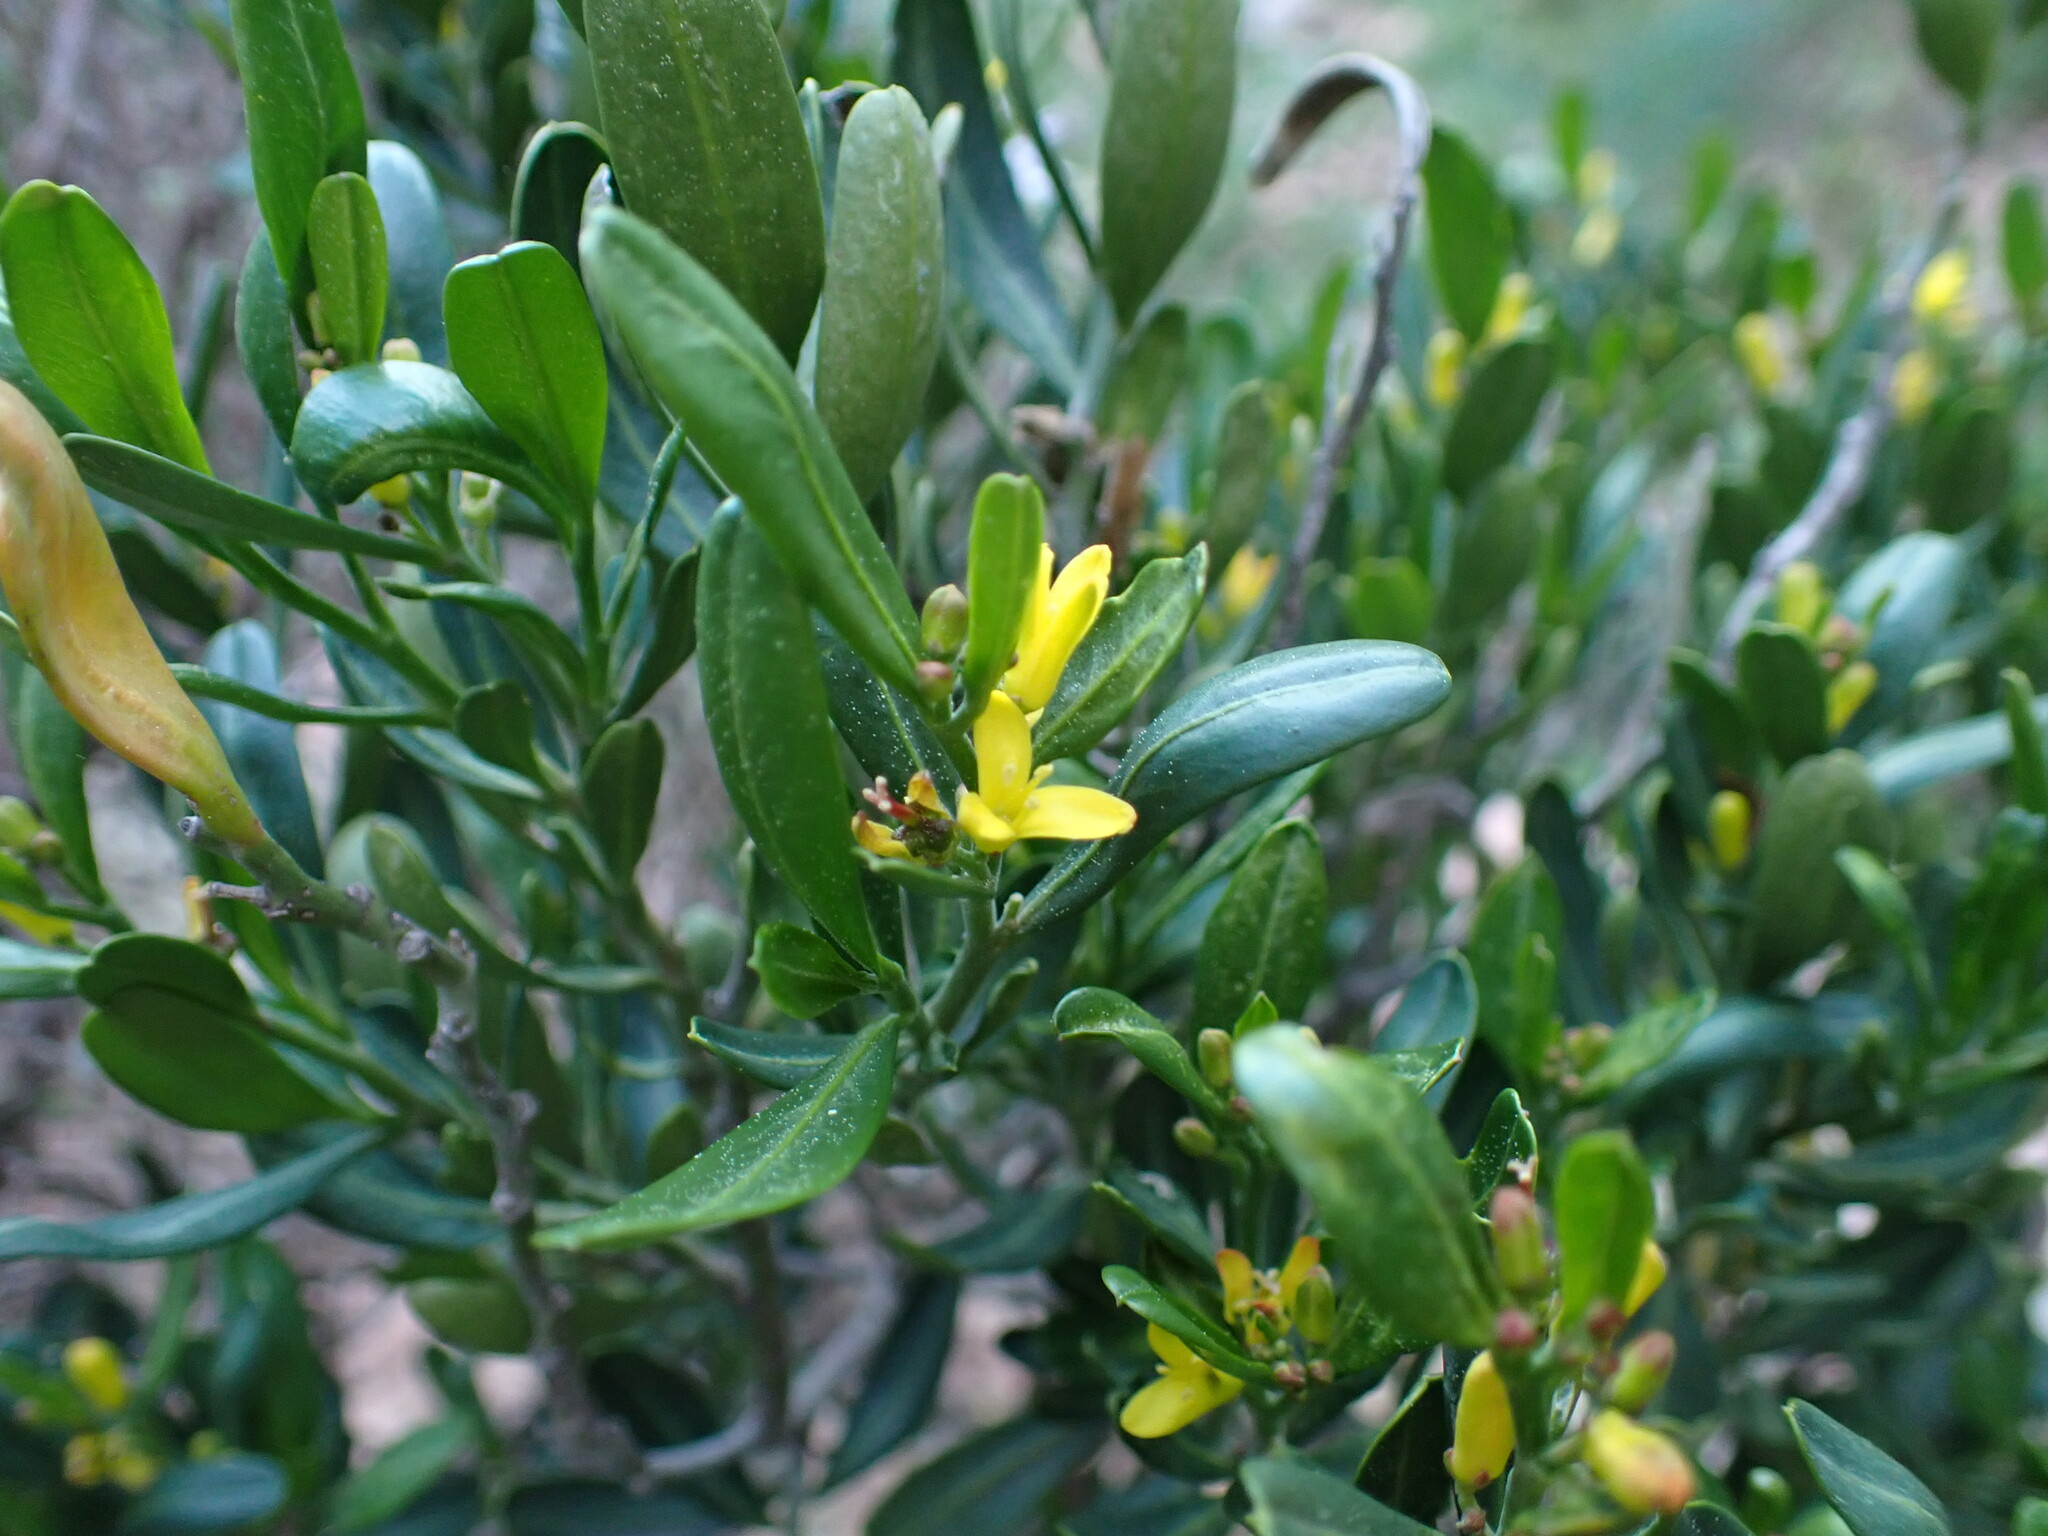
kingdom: Plantae
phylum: Tracheophyta
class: Magnoliopsida
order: Sapindales
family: Rutaceae
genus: Cneorum
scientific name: Cneorum tricoccon
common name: Spurge olive
